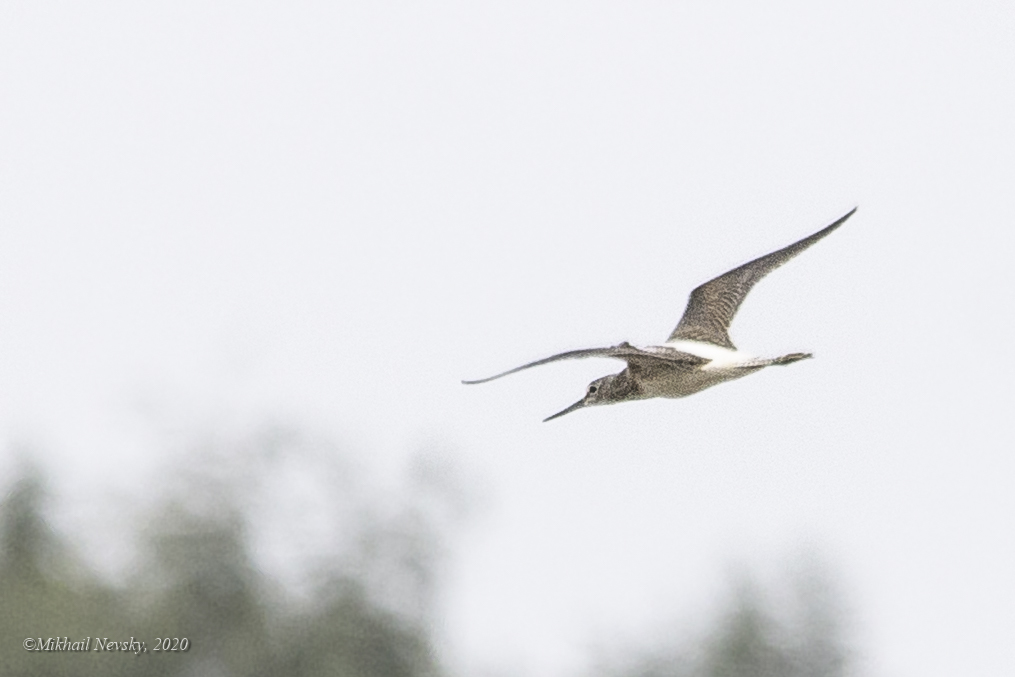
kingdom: Animalia
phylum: Chordata
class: Aves
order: Charadriiformes
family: Scolopacidae
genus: Tringa
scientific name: Tringa nebularia
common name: Common greenshank
